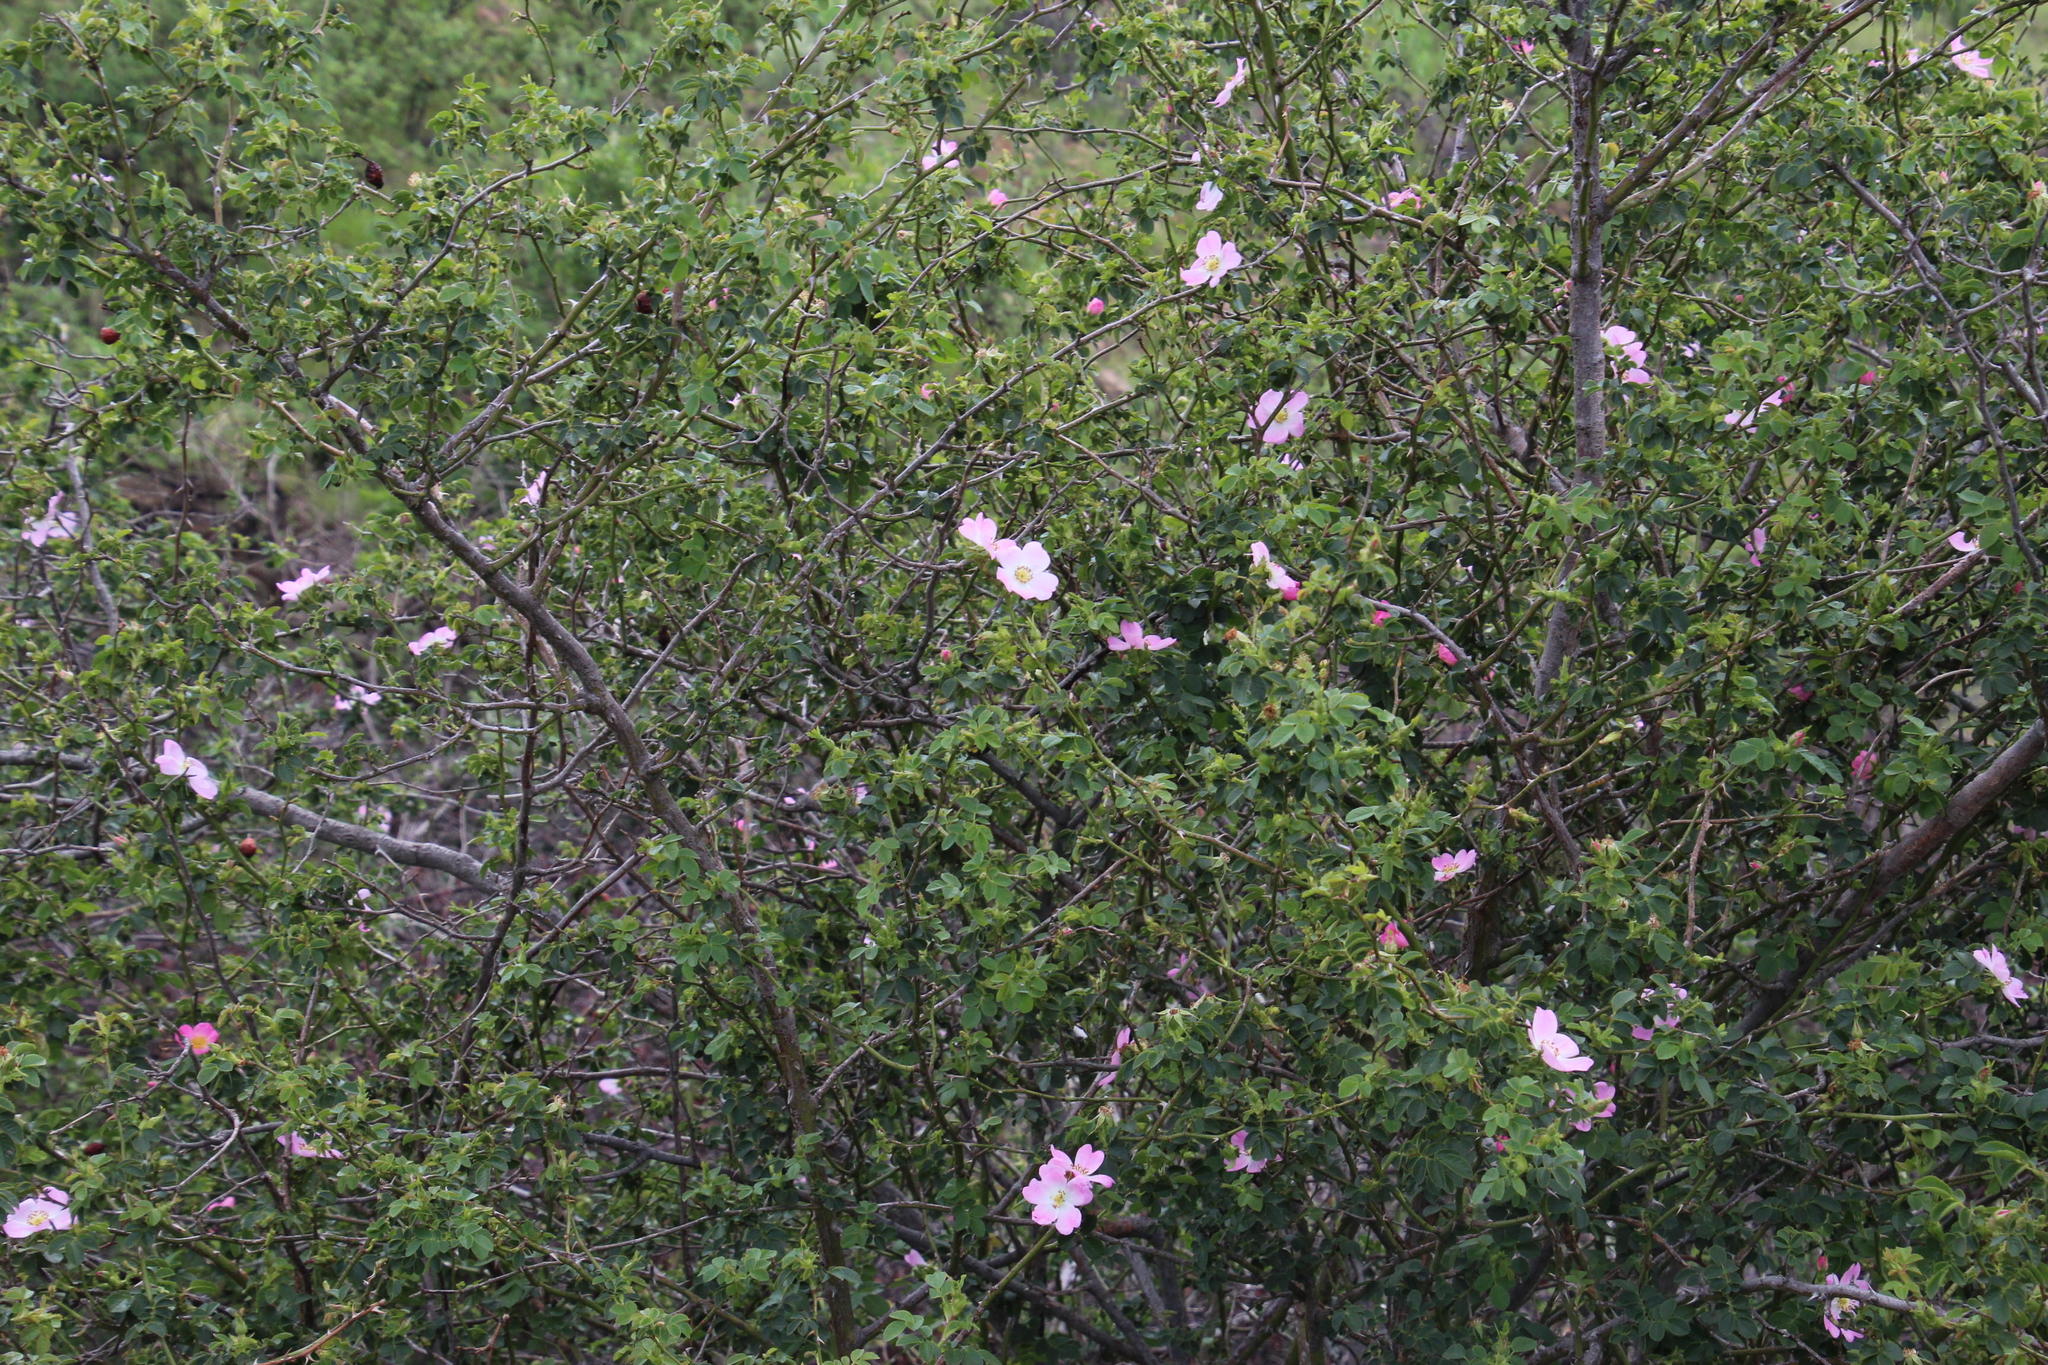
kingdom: Plantae
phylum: Tracheophyta
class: Magnoliopsida
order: Rosales
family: Rosaceae
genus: Rosa
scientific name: Rosa rubiginosa
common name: Sweet-briar
